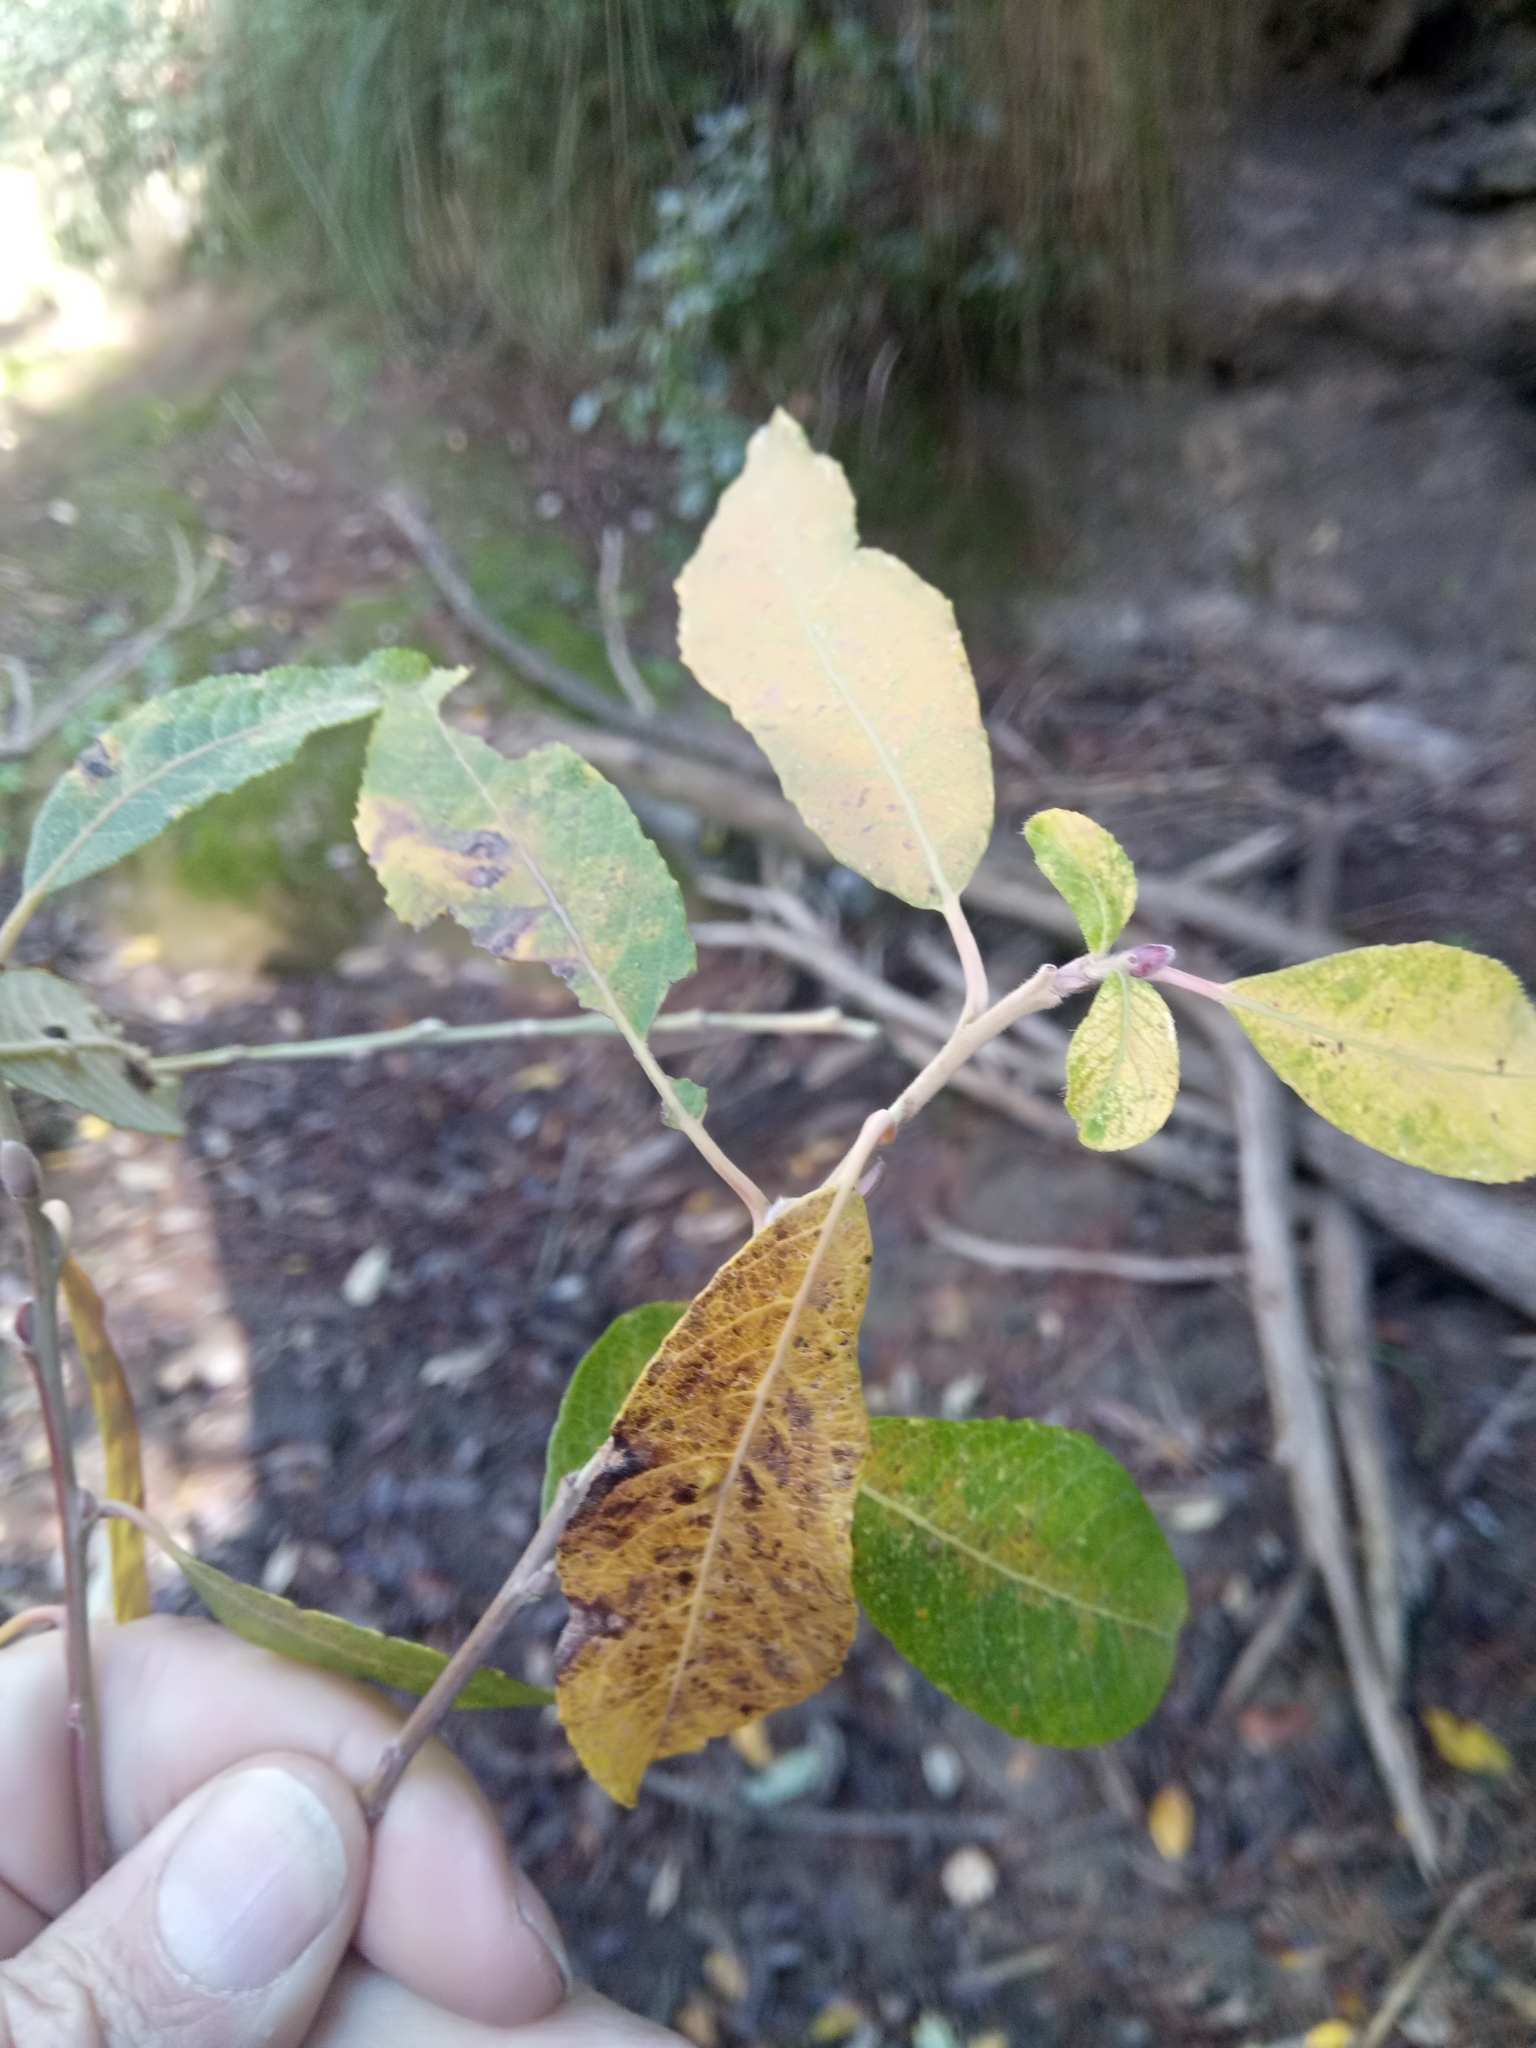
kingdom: Plantae
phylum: Tracheophyta
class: Magnoliopsida
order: Malpighiales
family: Salicaceae
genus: Salix
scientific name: Salix pedicellata
